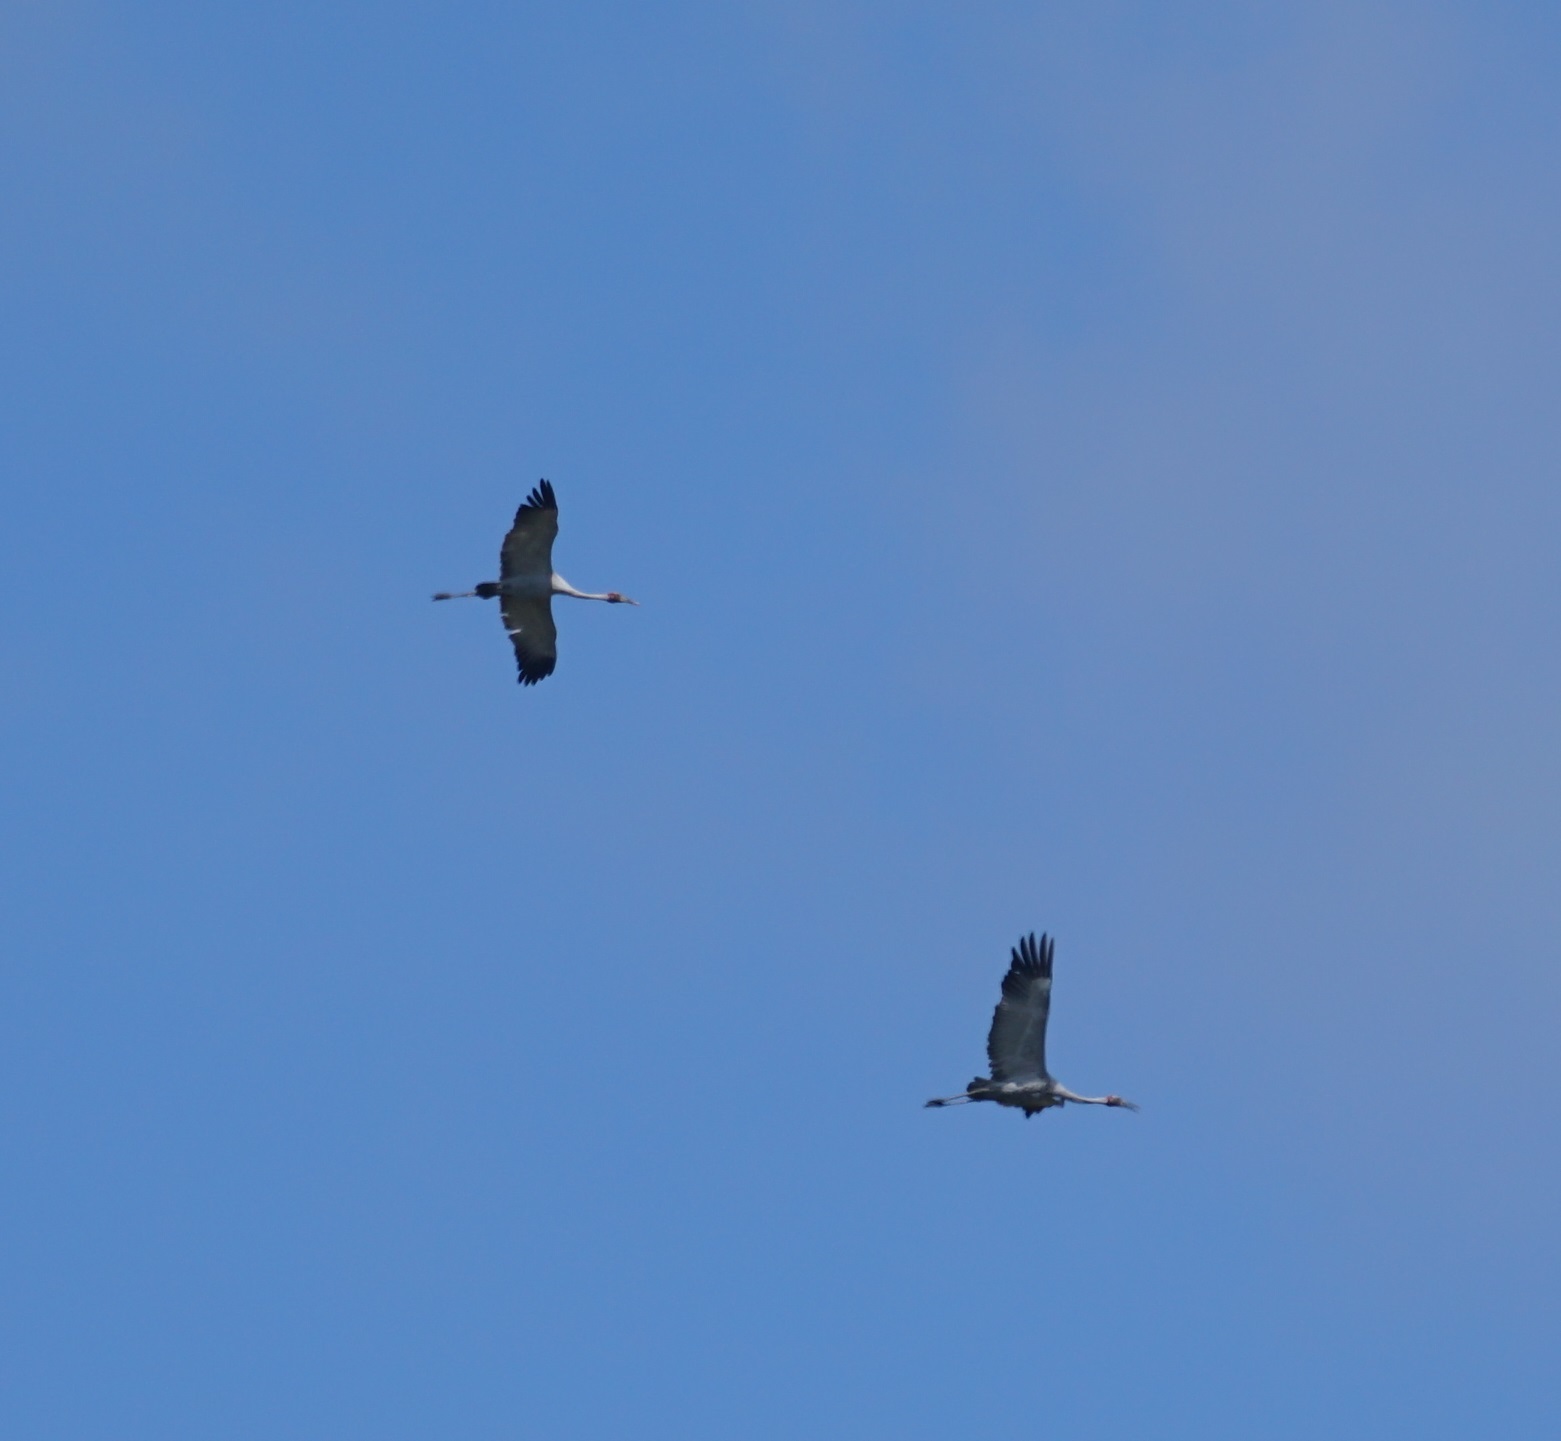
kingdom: Animalia
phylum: Chordata
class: Aves
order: Gruiformes
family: Gruidae
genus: Grus
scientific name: Grus rubicunda
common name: Brolga
